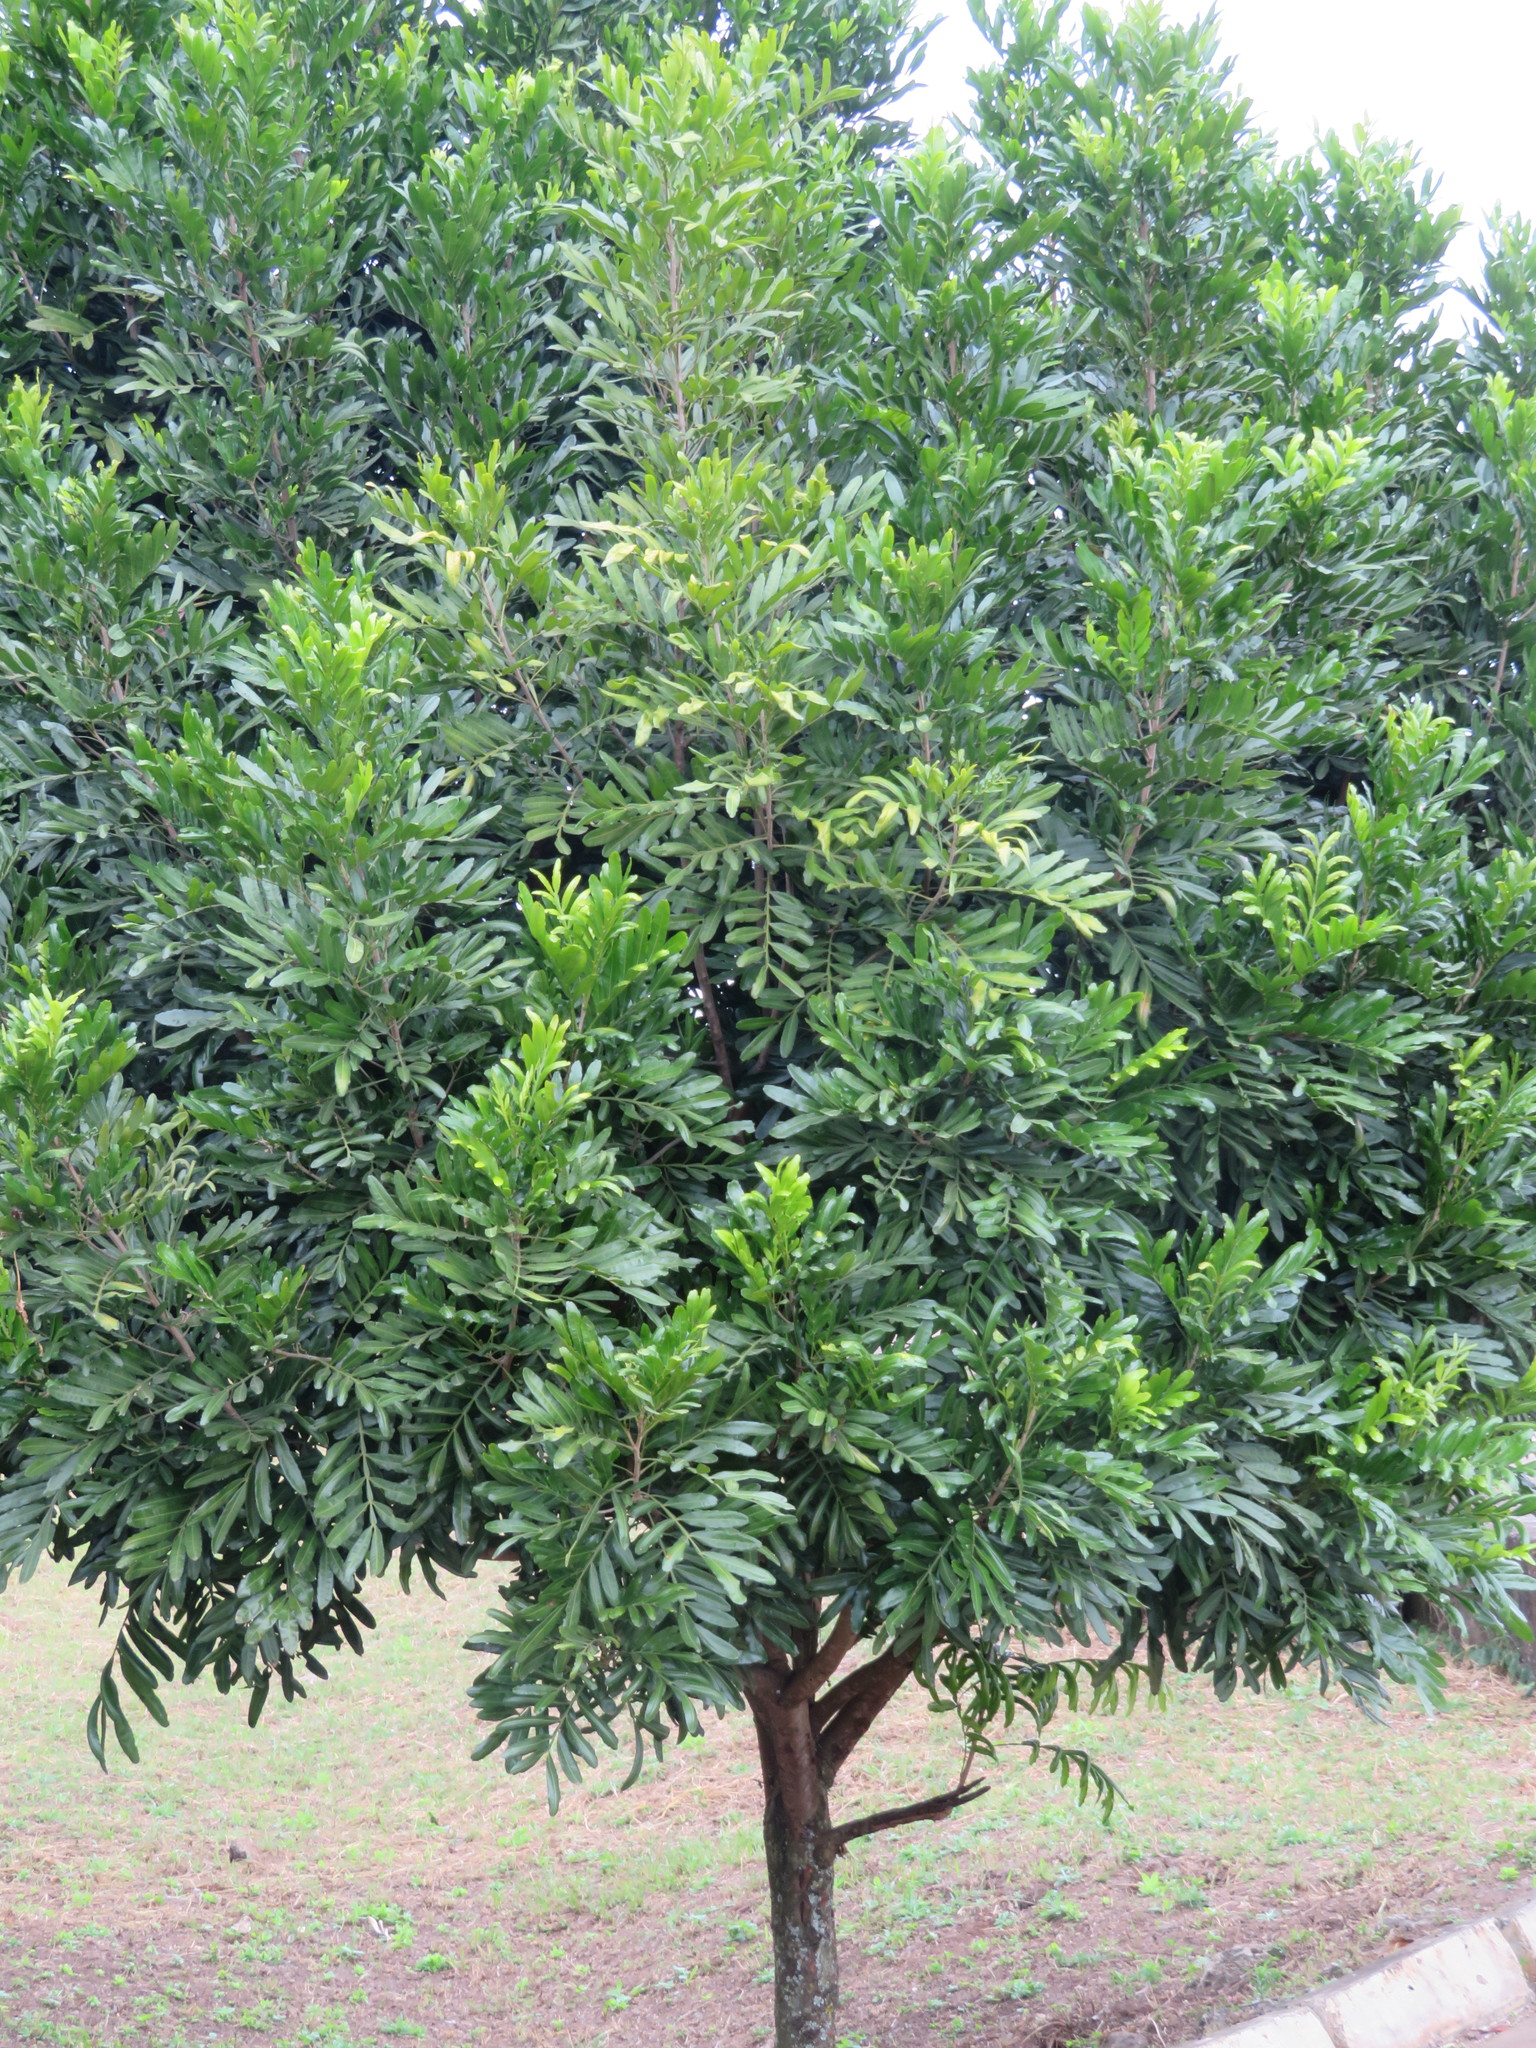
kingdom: Plantae
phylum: Tracheophyta
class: Magnoliopsida
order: Sapindales
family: Sapindaceae
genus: Filicium
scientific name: Filicium decipiens
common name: Ferntree
